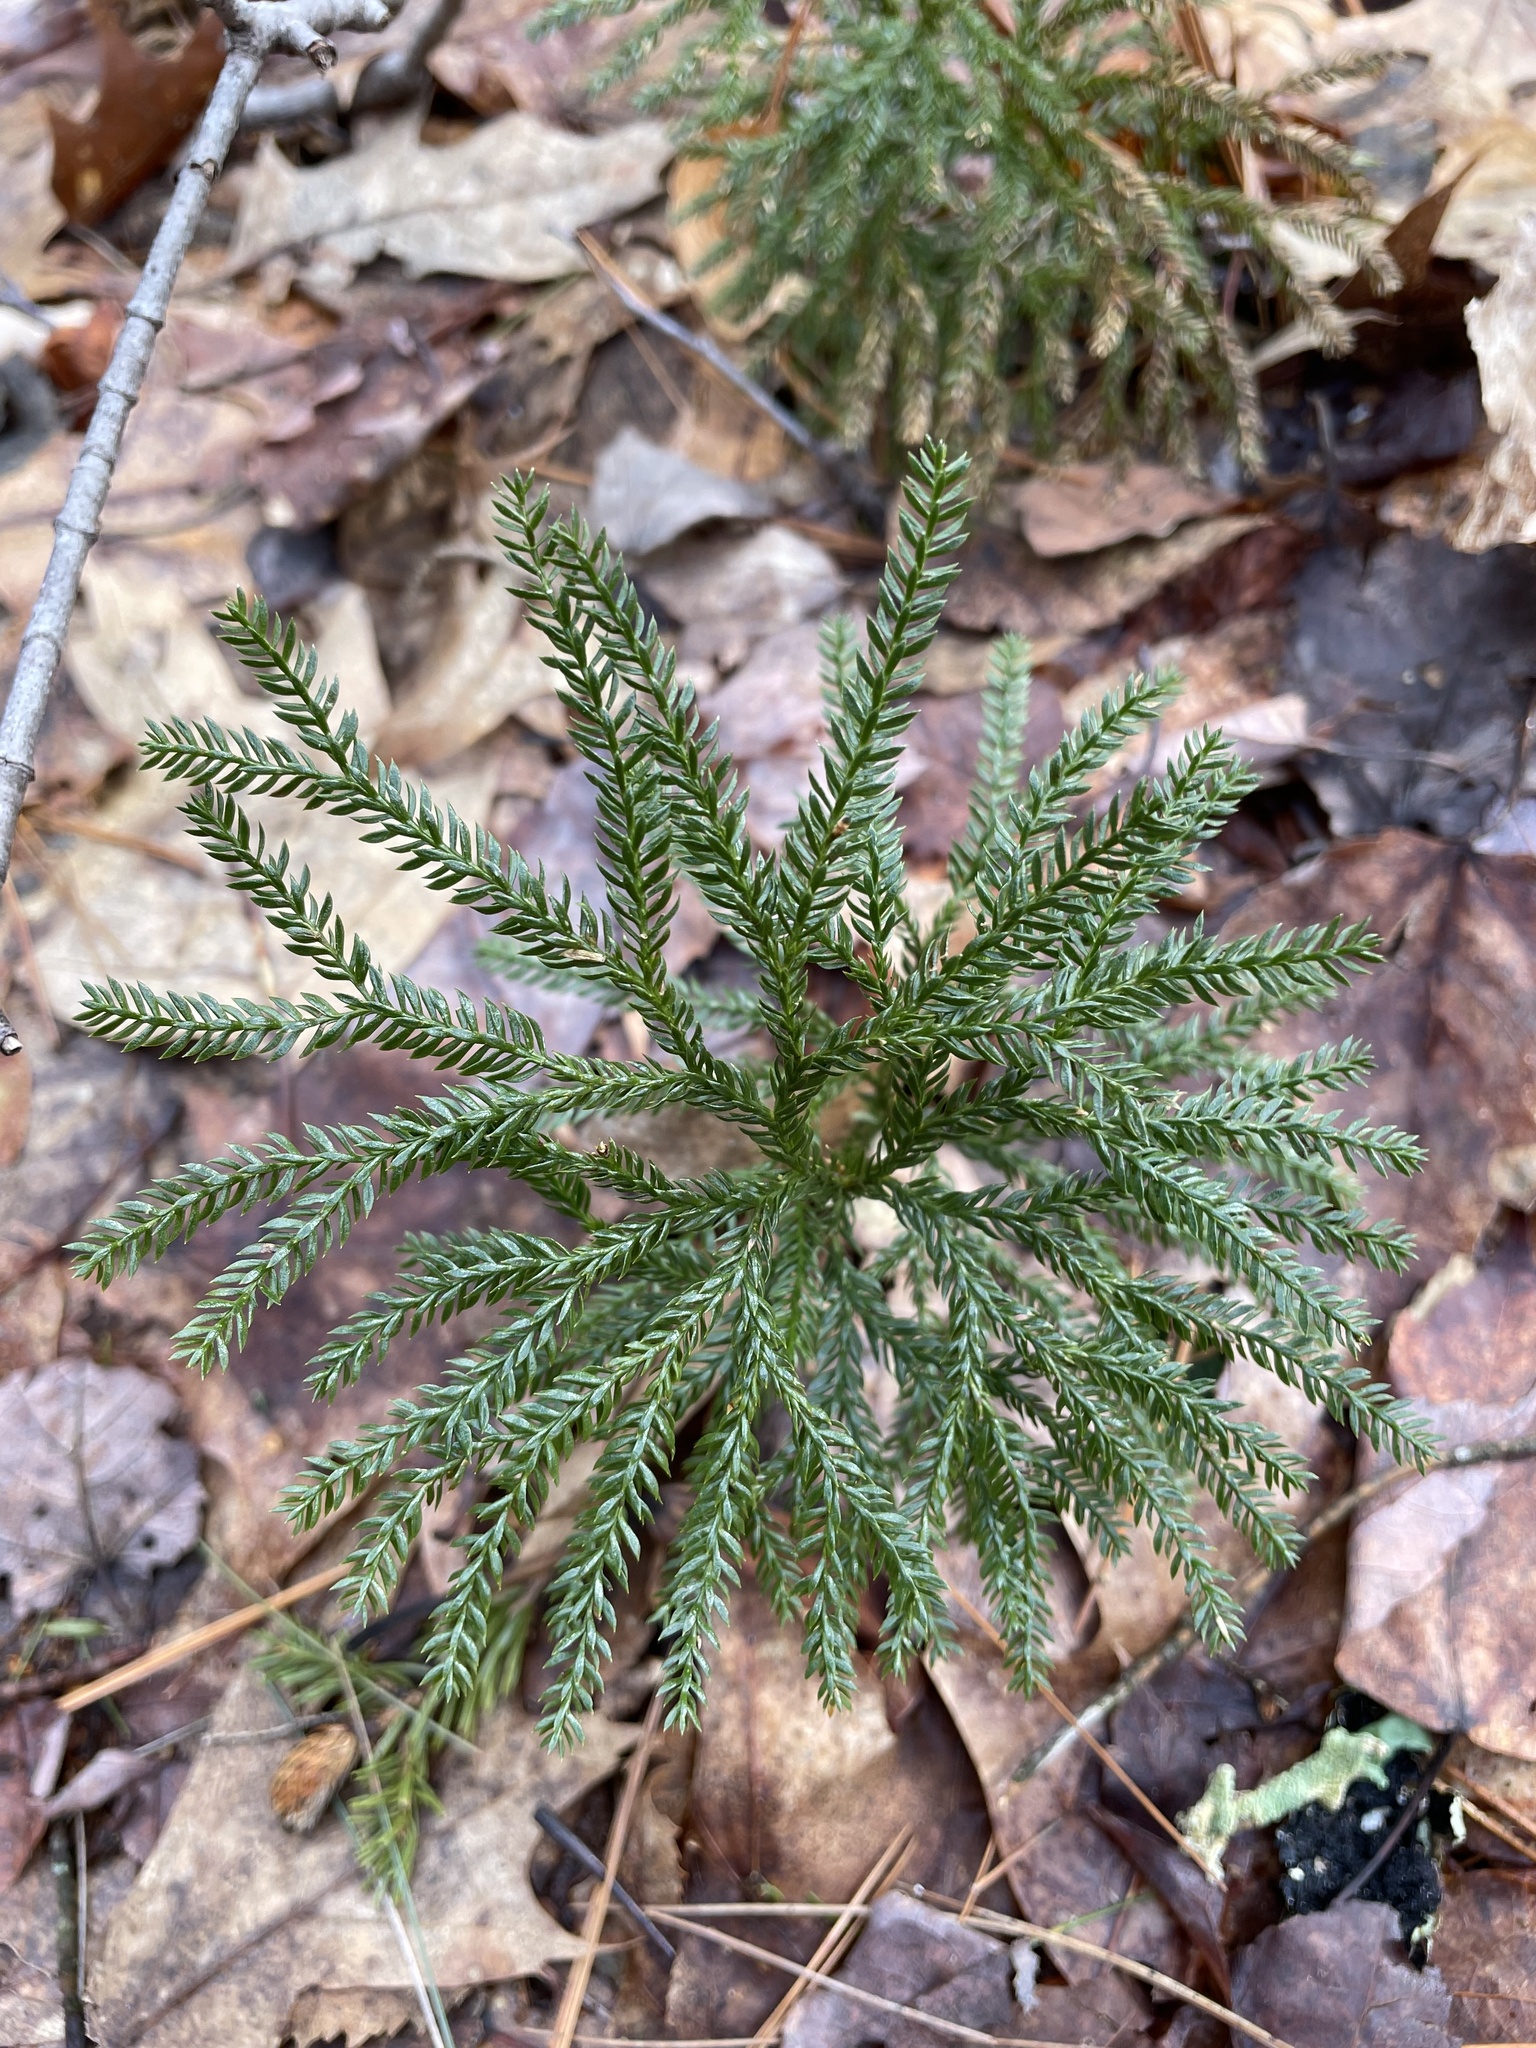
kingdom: Plantae
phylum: Tracheophyta
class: Lycopodiopsida
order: Lycopodiales
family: Lycopodiaceae
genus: Dendrolycopodium
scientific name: Dendrolycopodium obscurum
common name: Common ground-pine
